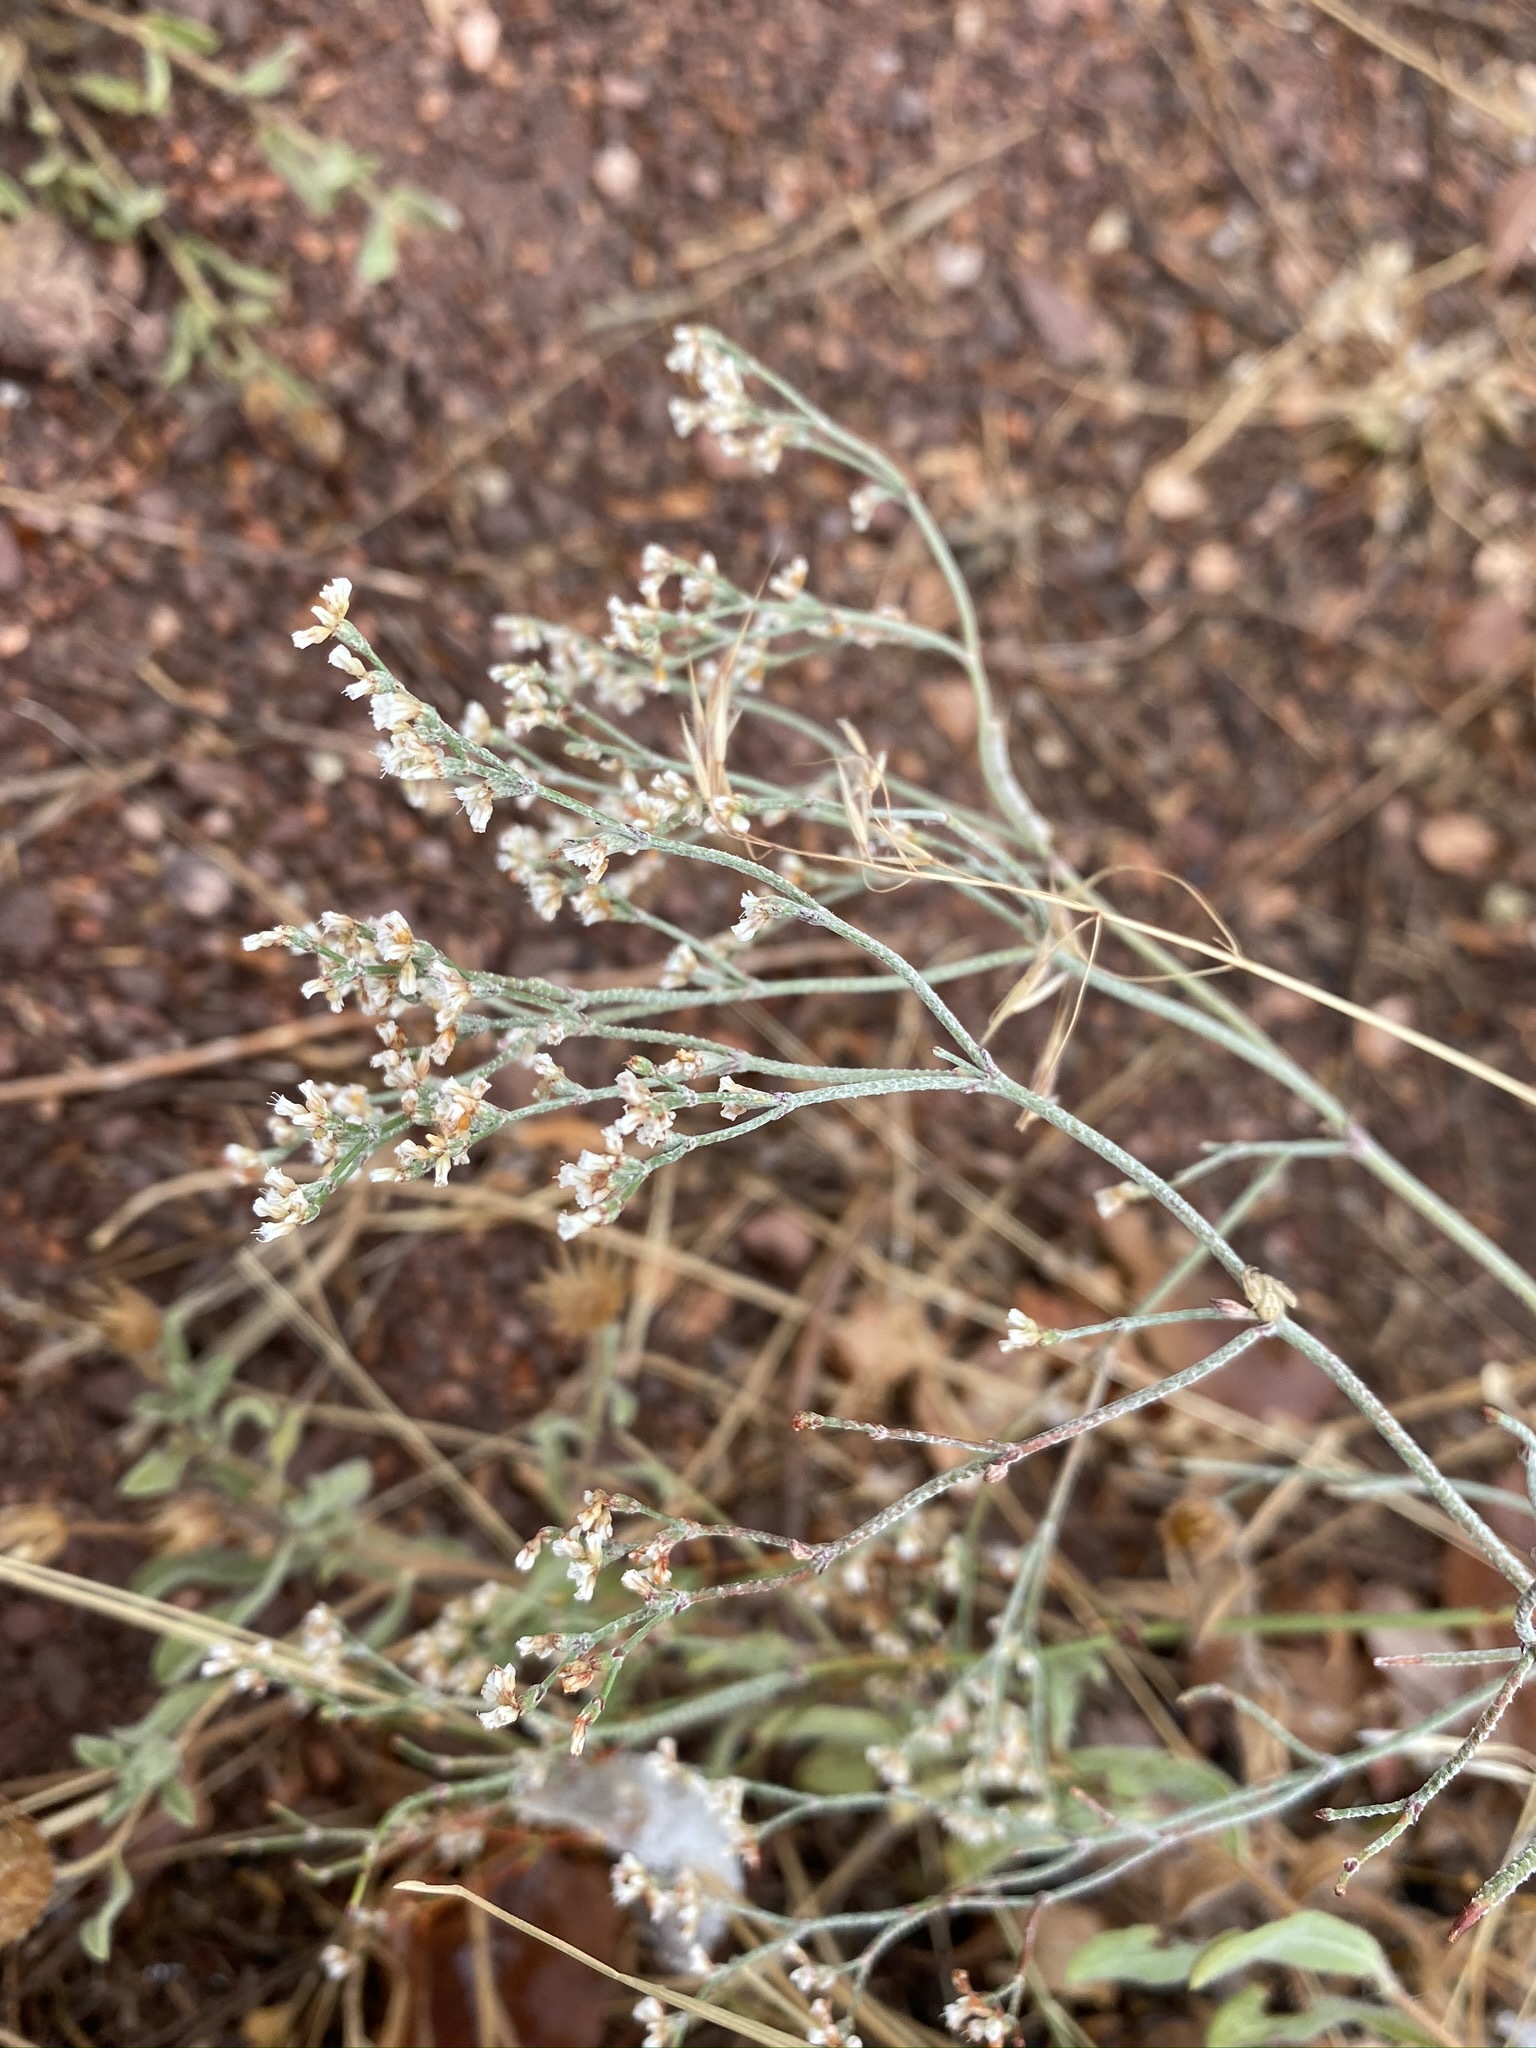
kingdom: Plantae
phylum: Tracheophyta
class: Magnoliopsida
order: Caryophyllales
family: Polygonaceae
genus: Eriogonum
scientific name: Eriogonum effusum
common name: Spreading wild buckwheat
